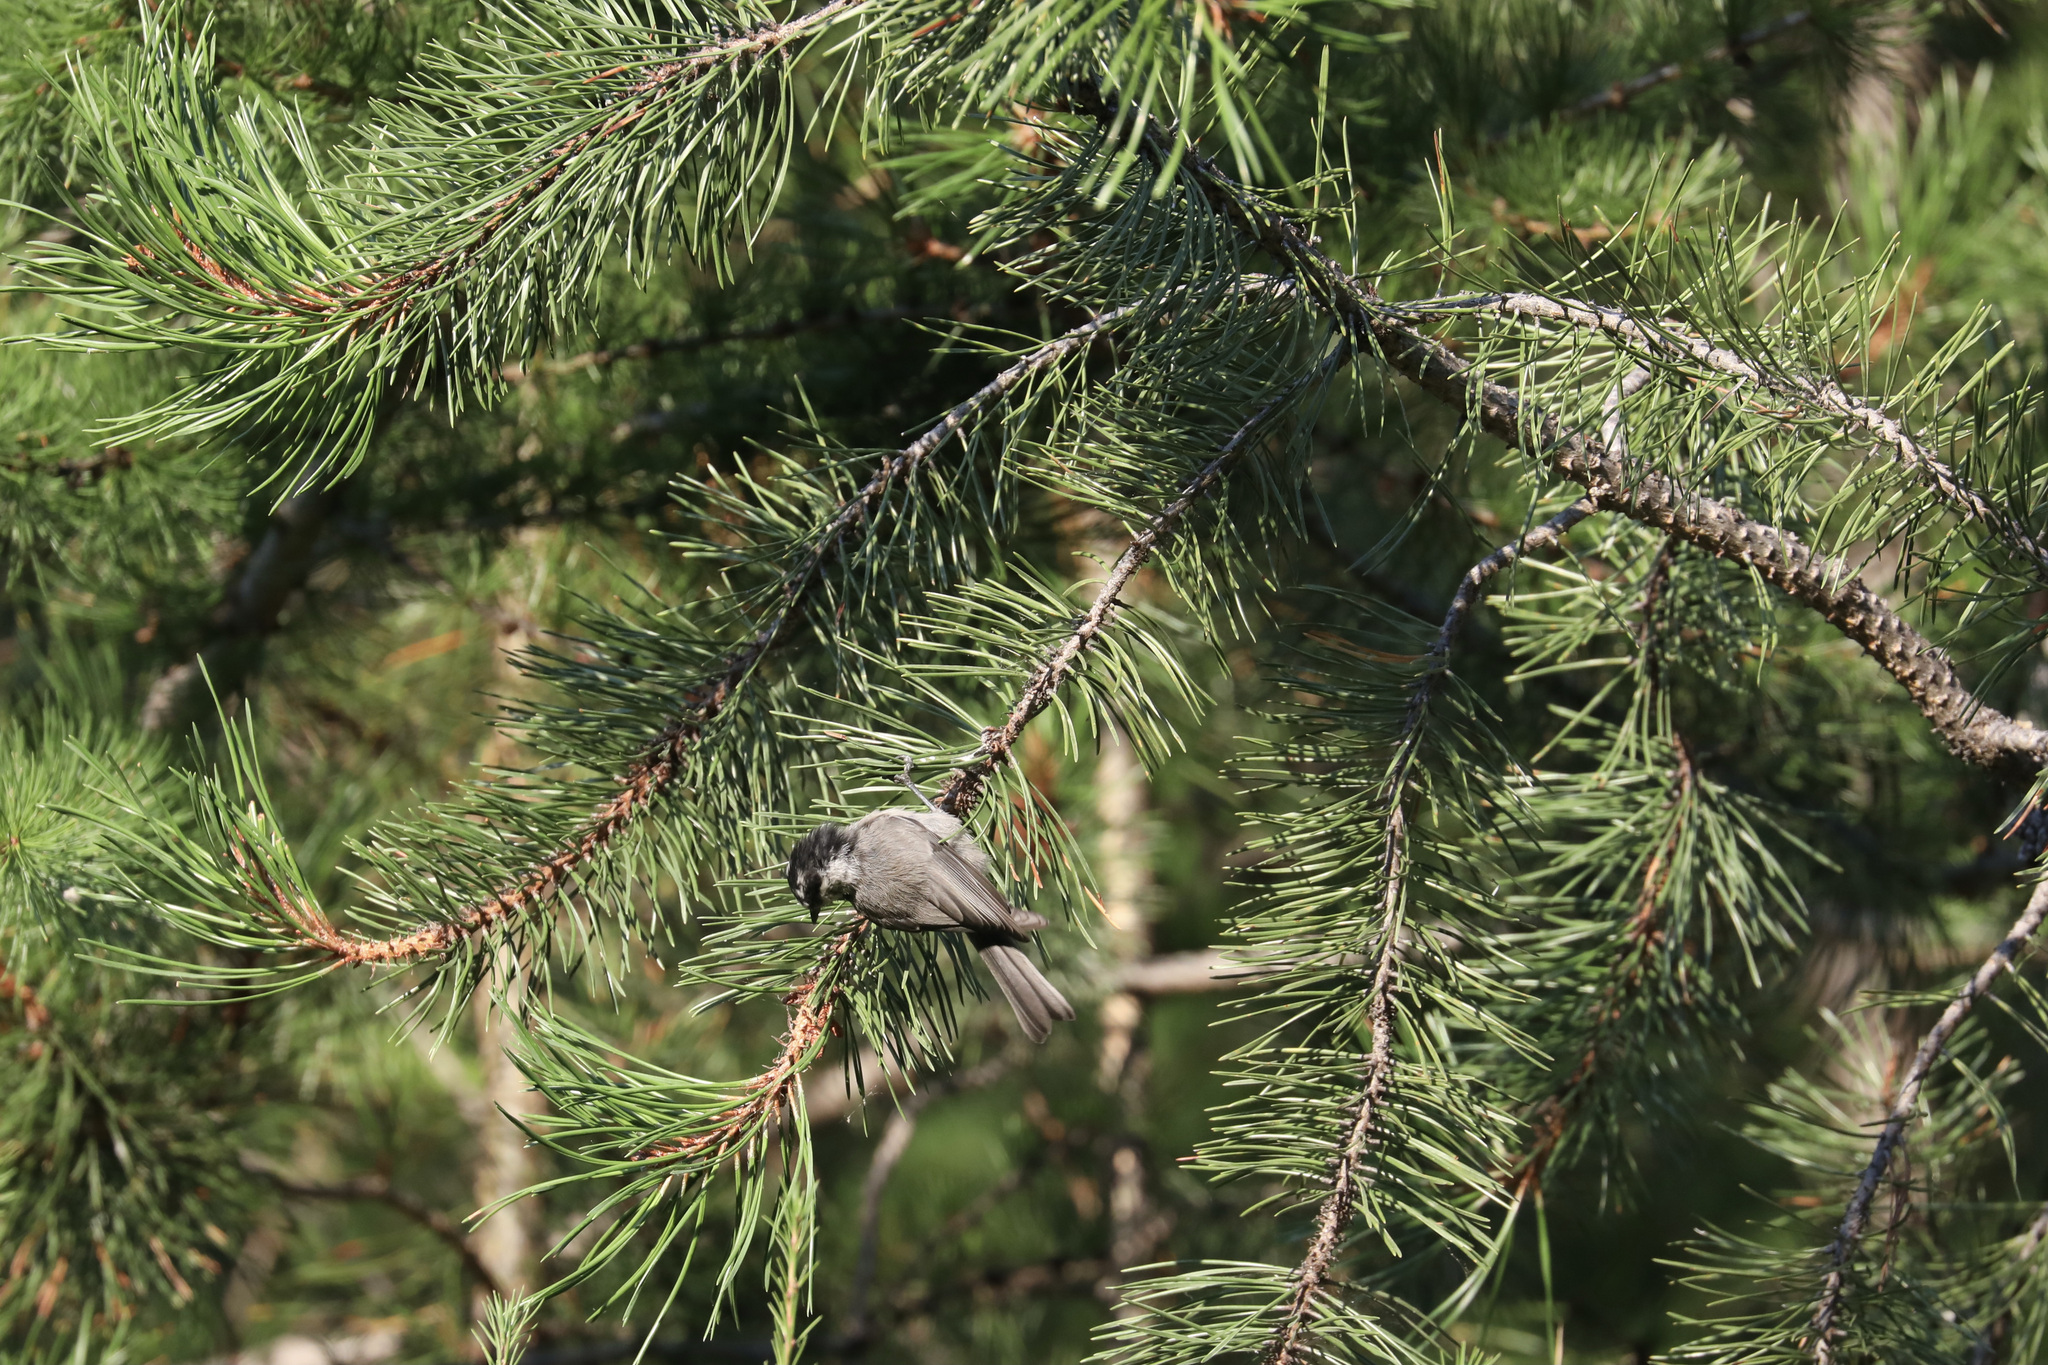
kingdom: Animalia
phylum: Chordata
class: Aves
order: Passeriformes
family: Paridae
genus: Poecile
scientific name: Poecile gambeli
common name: Mountain chickadee
